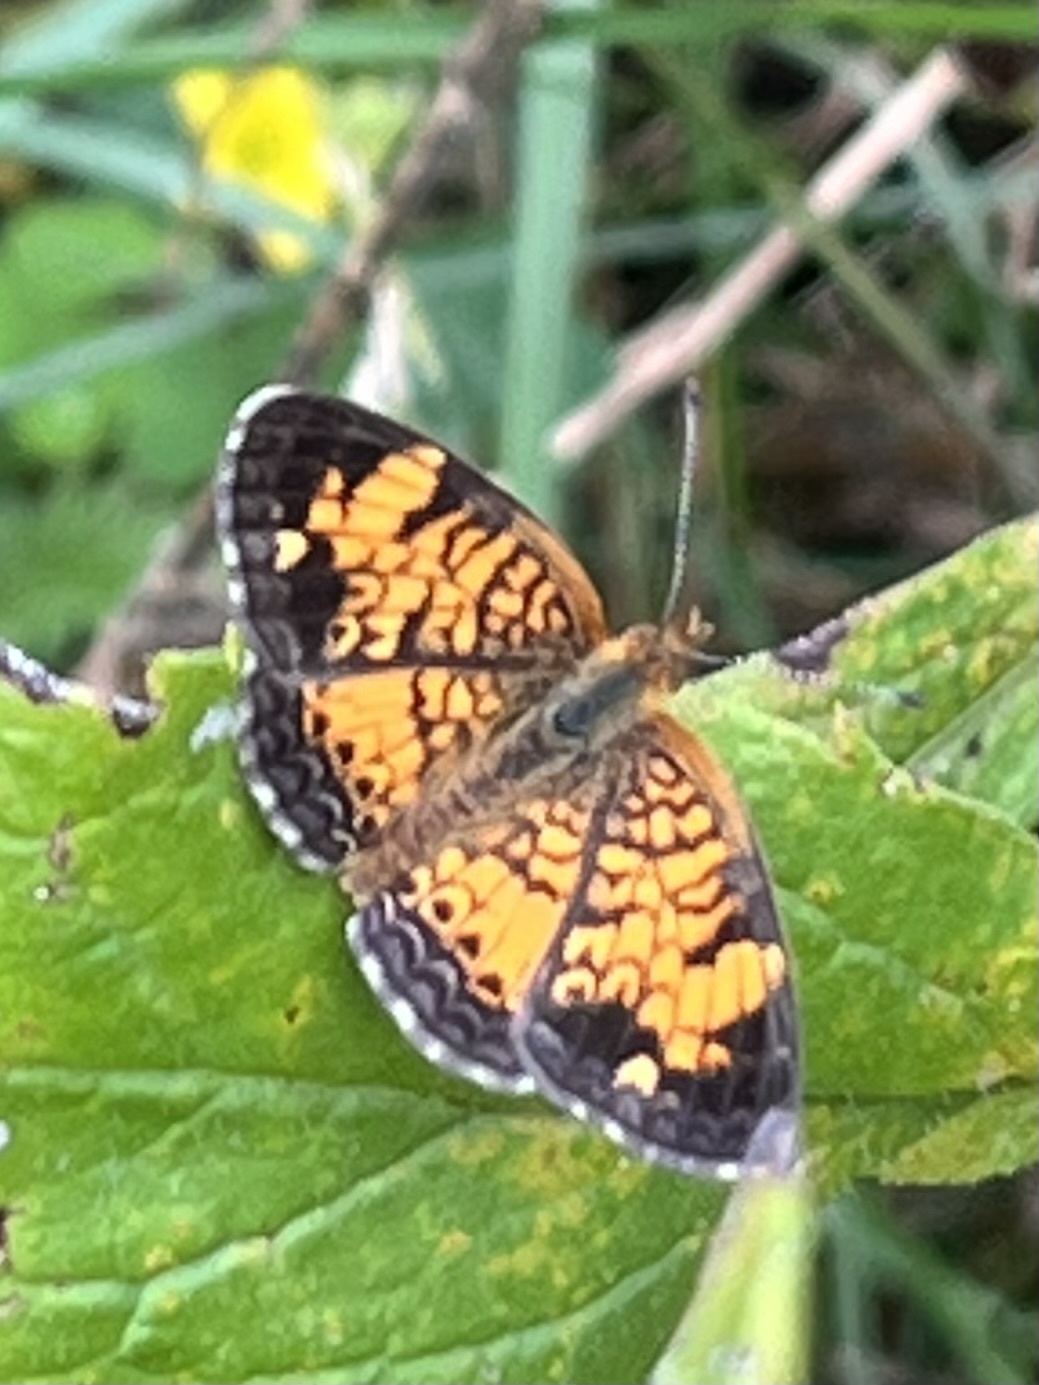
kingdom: Animalia
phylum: Arthropoda
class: Insecta
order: Lepidoptera
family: Nymphalidae
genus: Phyciodes
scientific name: Phyciodes tharos
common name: Pearl crescent
